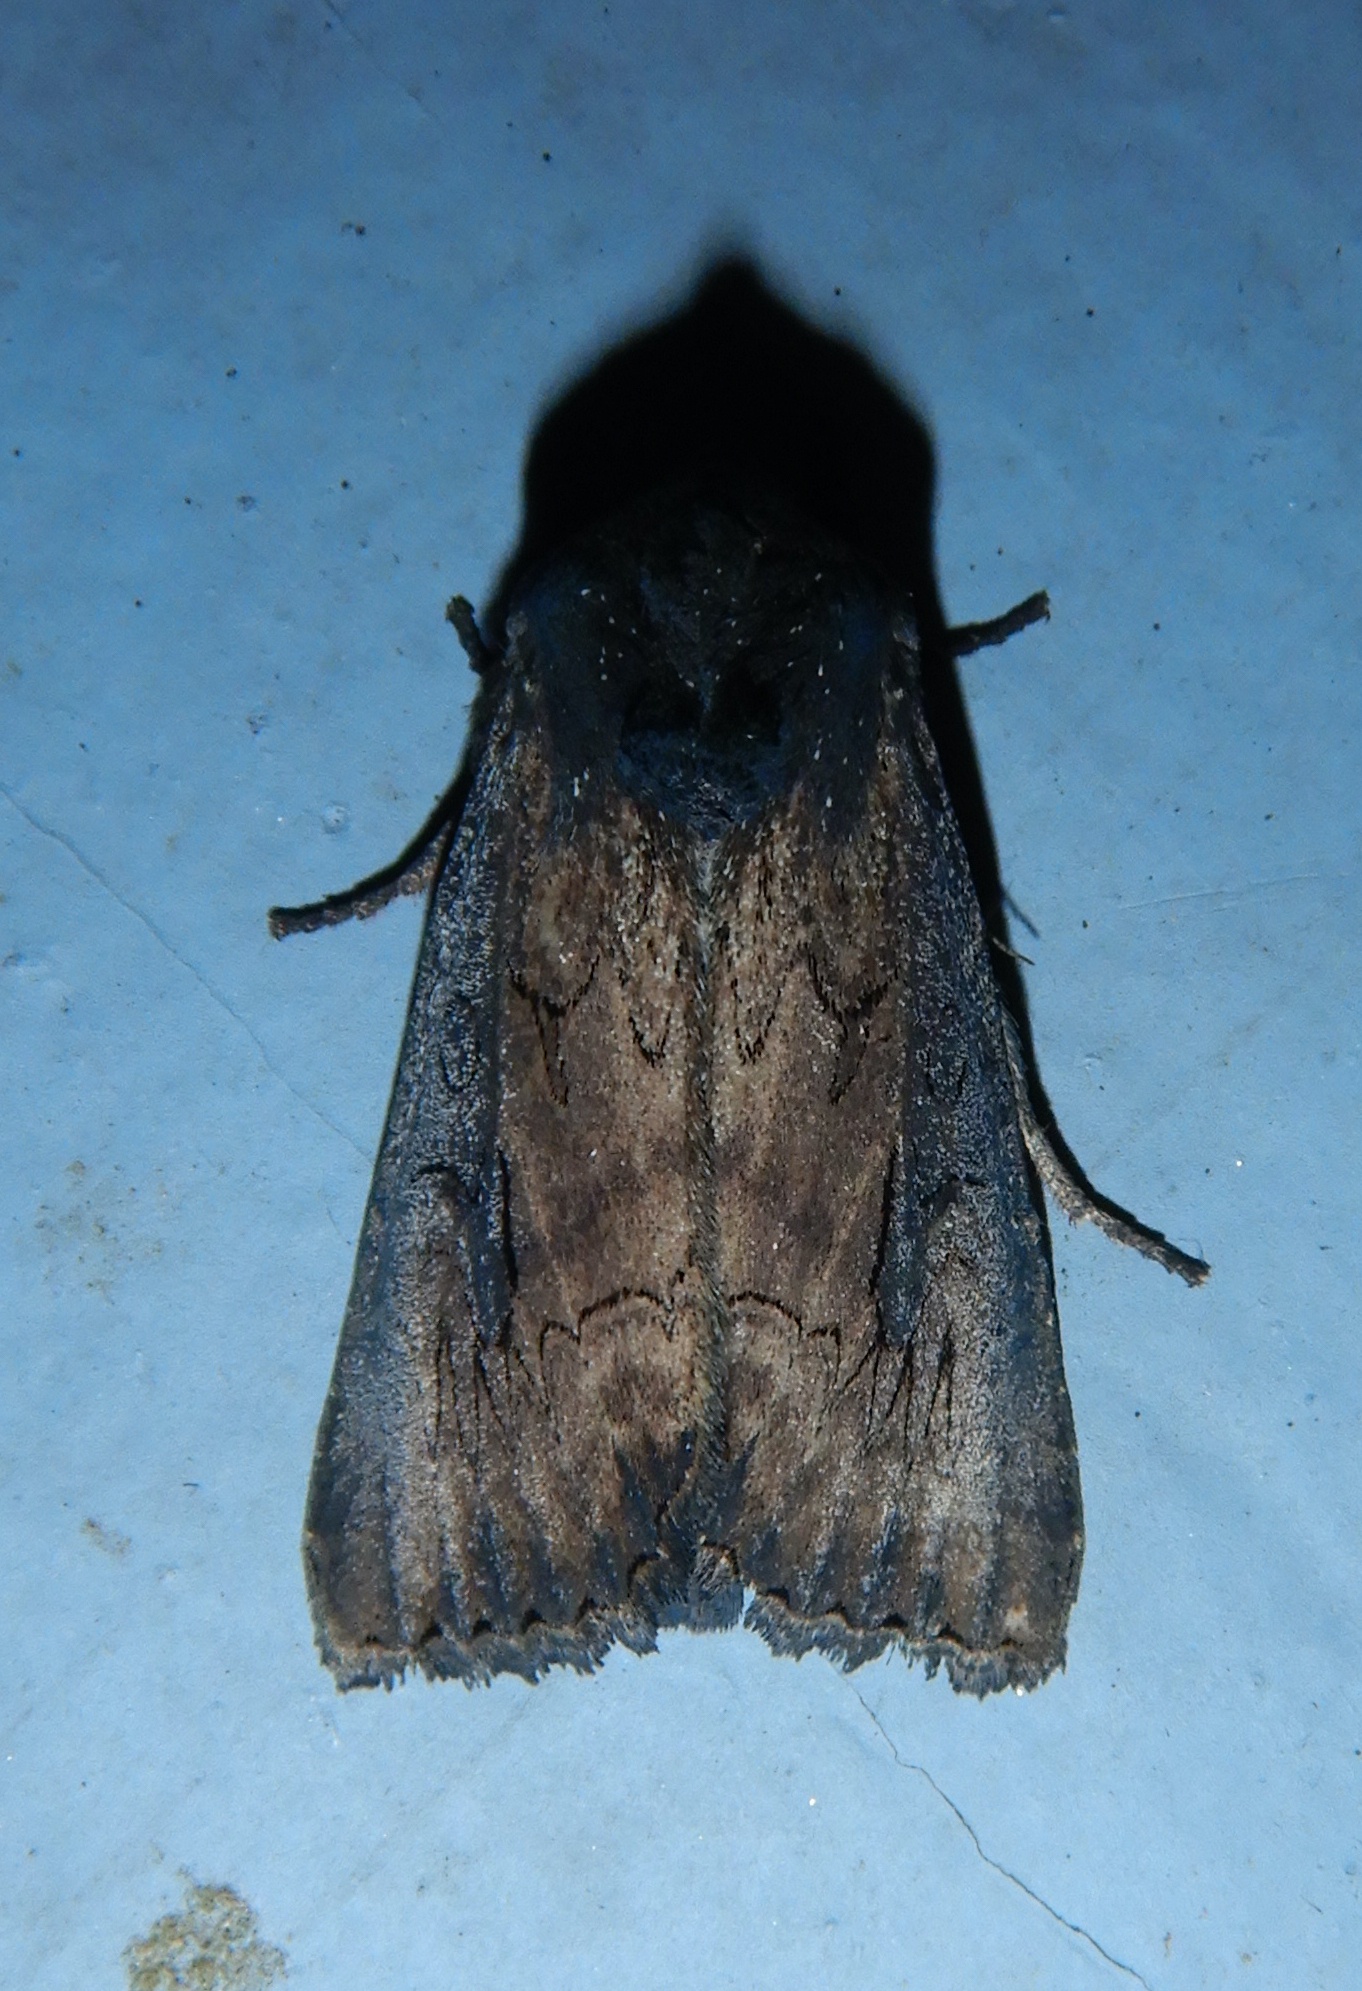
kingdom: Animalia
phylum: Arthropoda
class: Insecta
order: Lepidoptera
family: Noctuidae
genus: Macronoctua
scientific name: Macronoctua onusta
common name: Iris borer
